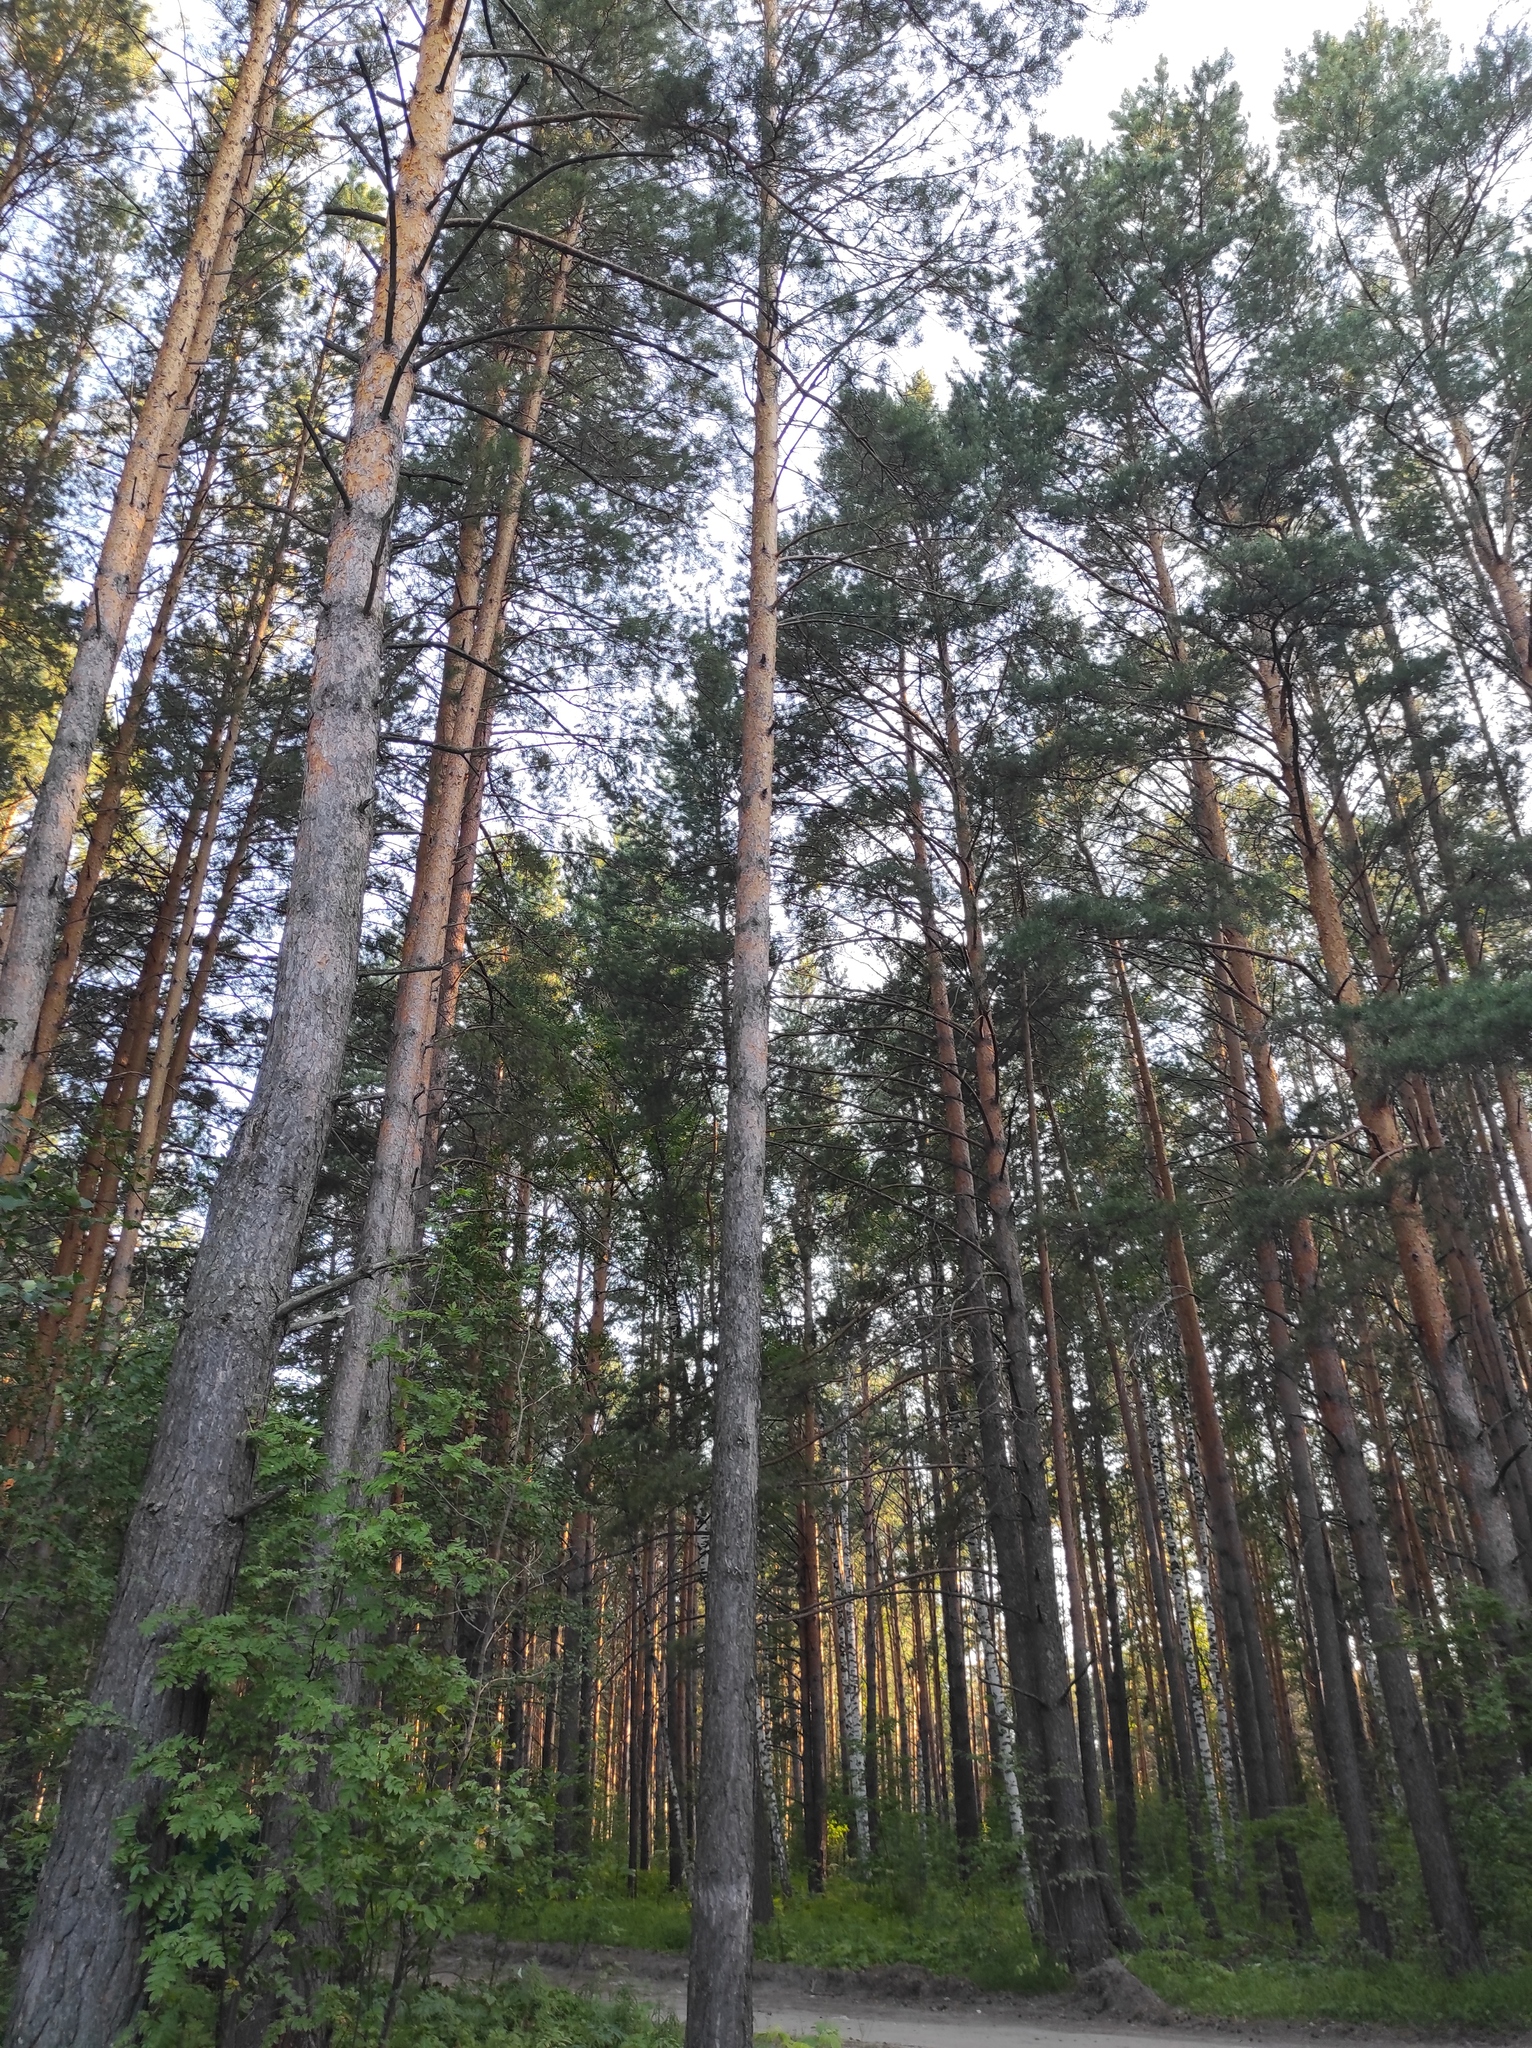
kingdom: Plantae
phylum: Tracheophyta
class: Pinopsida
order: Pinales
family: Pinaceae
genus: Pinus
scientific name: Pinus sylvestris
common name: Scots pine
